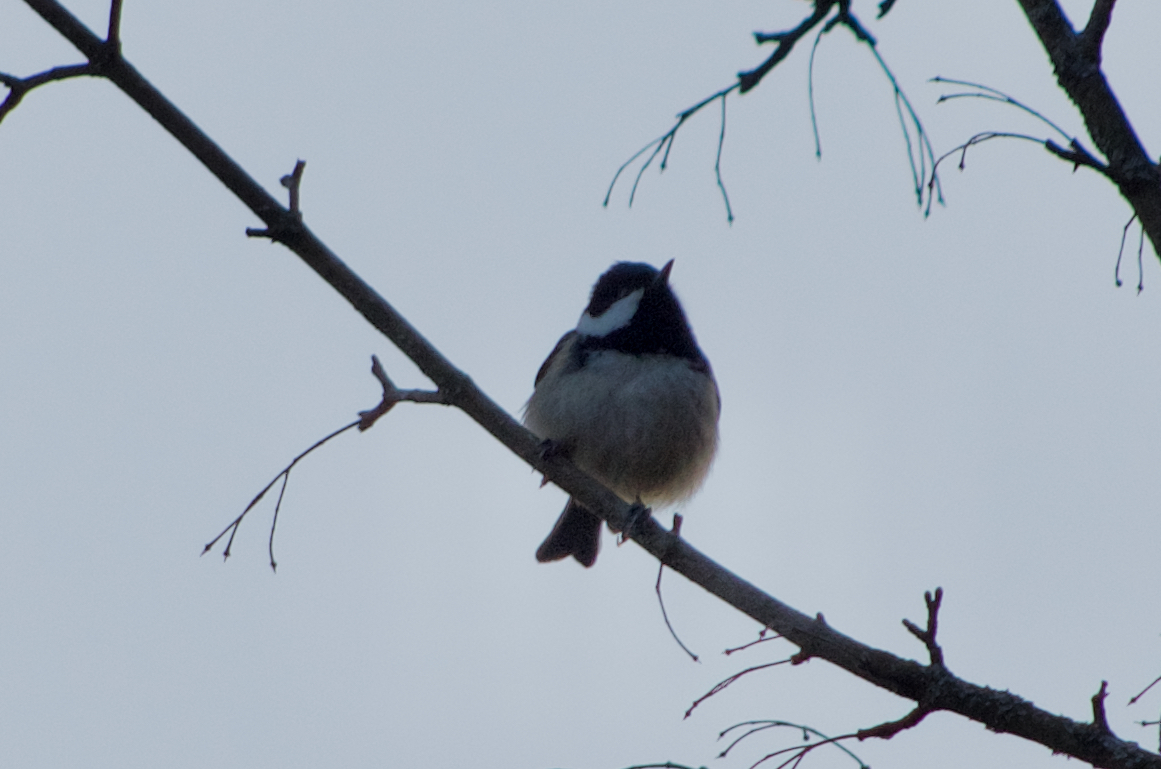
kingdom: Animalia
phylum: Chordata
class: Aves
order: Passeriformes
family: Paridae
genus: Periparus
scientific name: Periparus ater
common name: Coal tit
